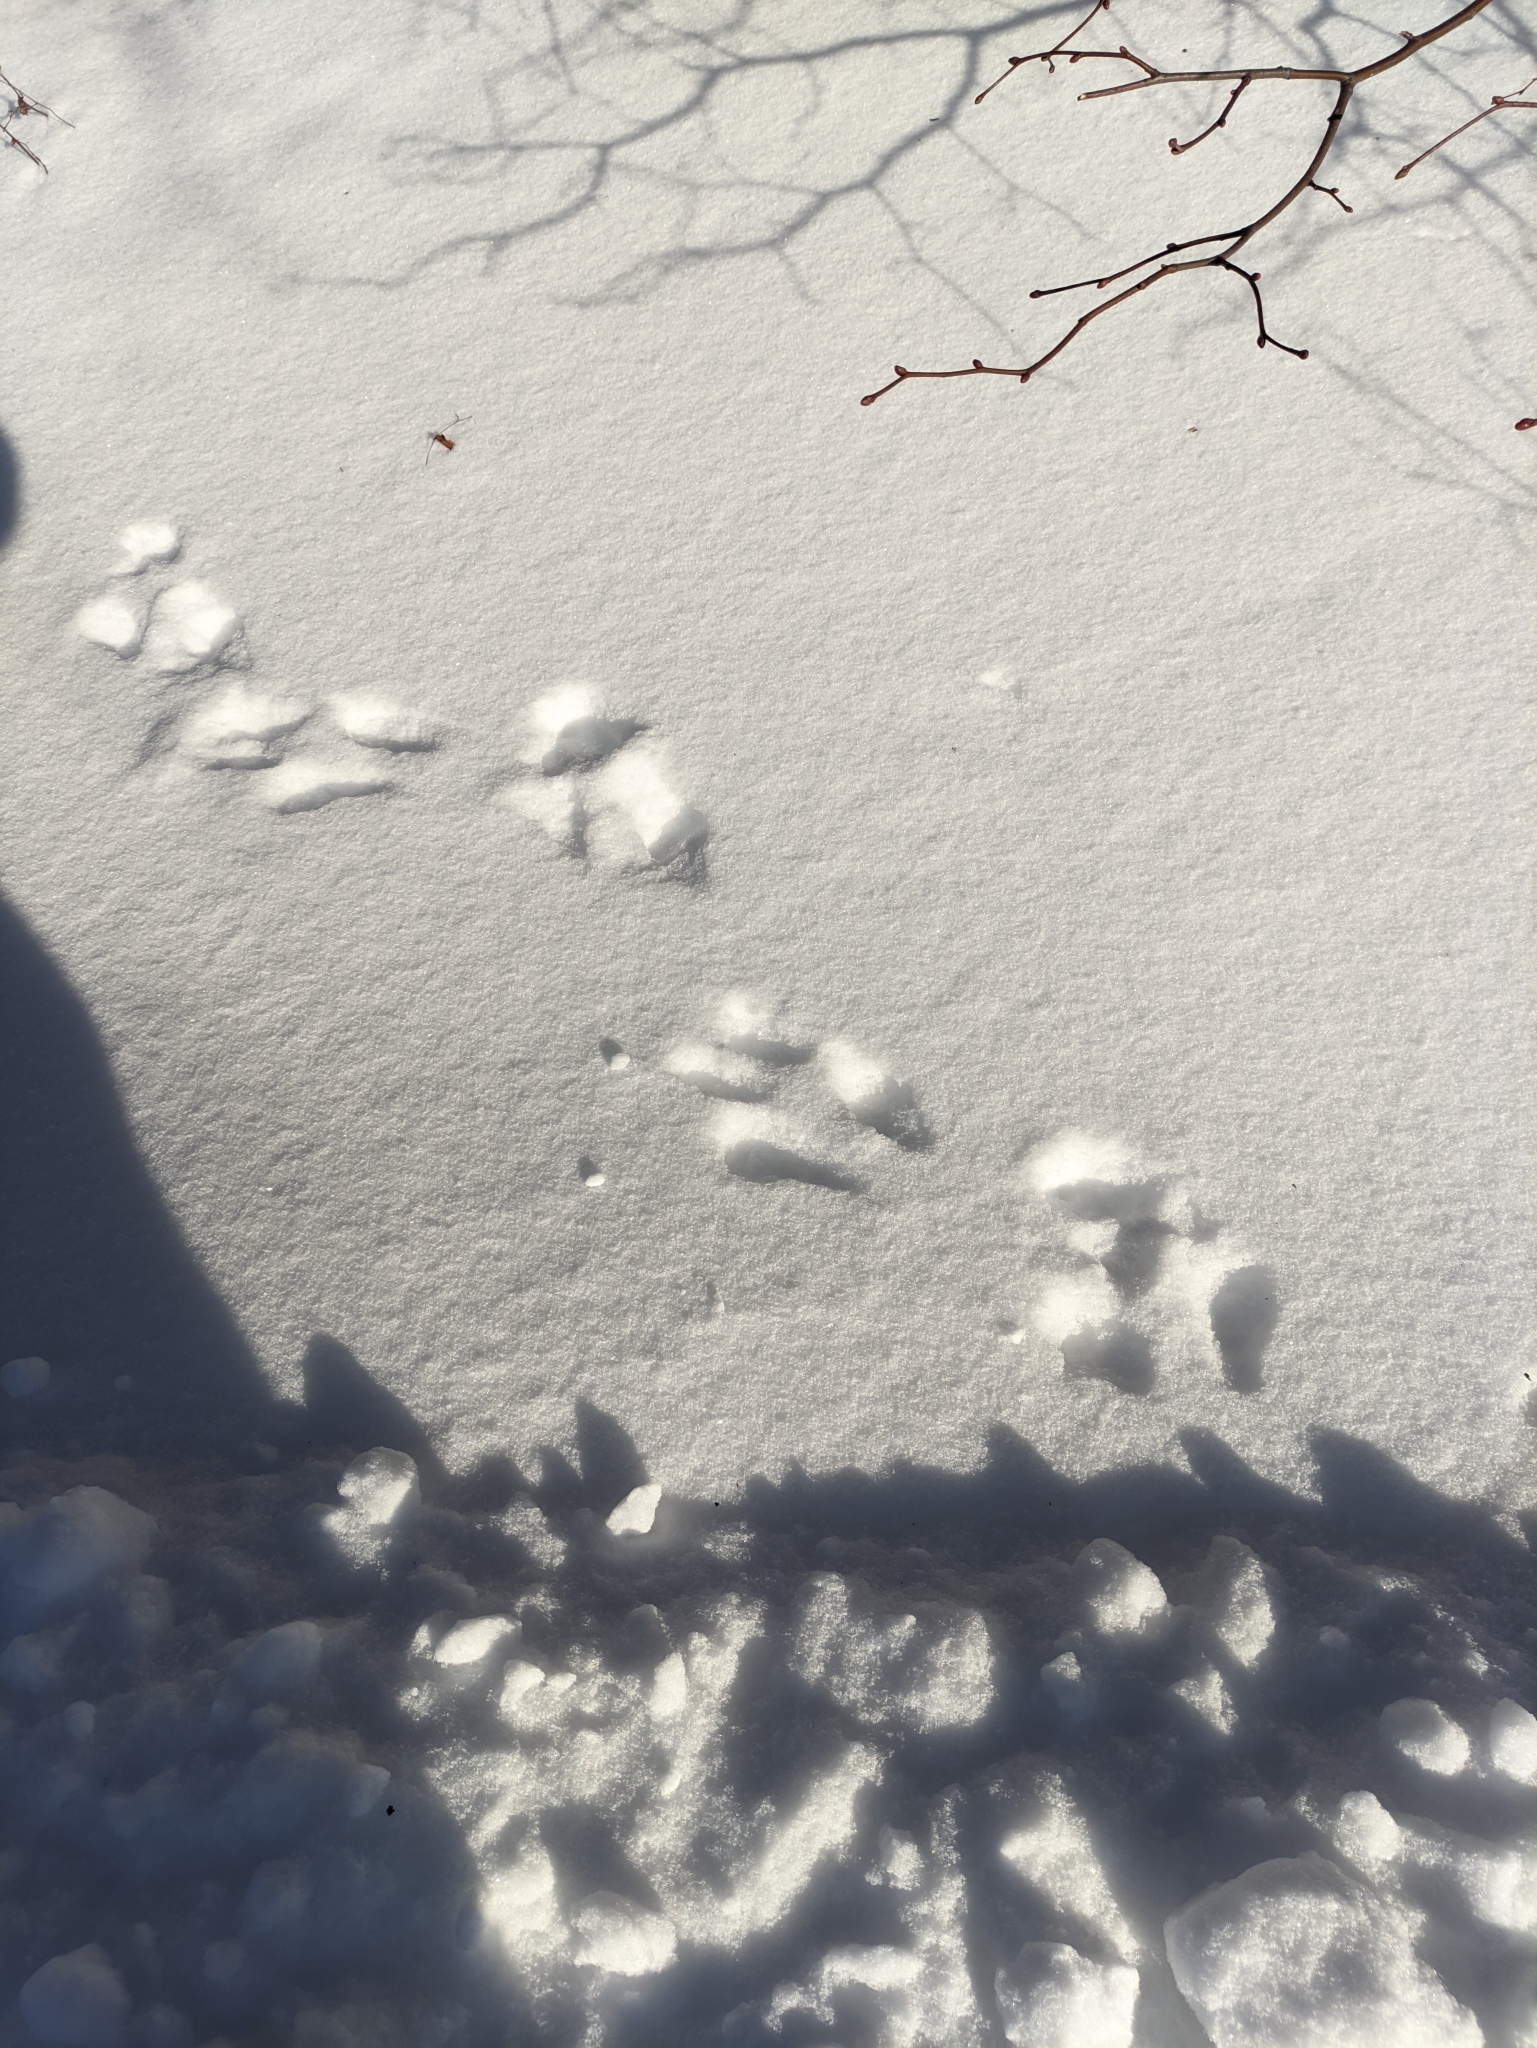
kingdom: Animalia
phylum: Chordata
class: Mammalia
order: Rodentia
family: Sciuridae
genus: Sciurus
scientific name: Sciurus vulgaris
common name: Eurasian red squirrel
